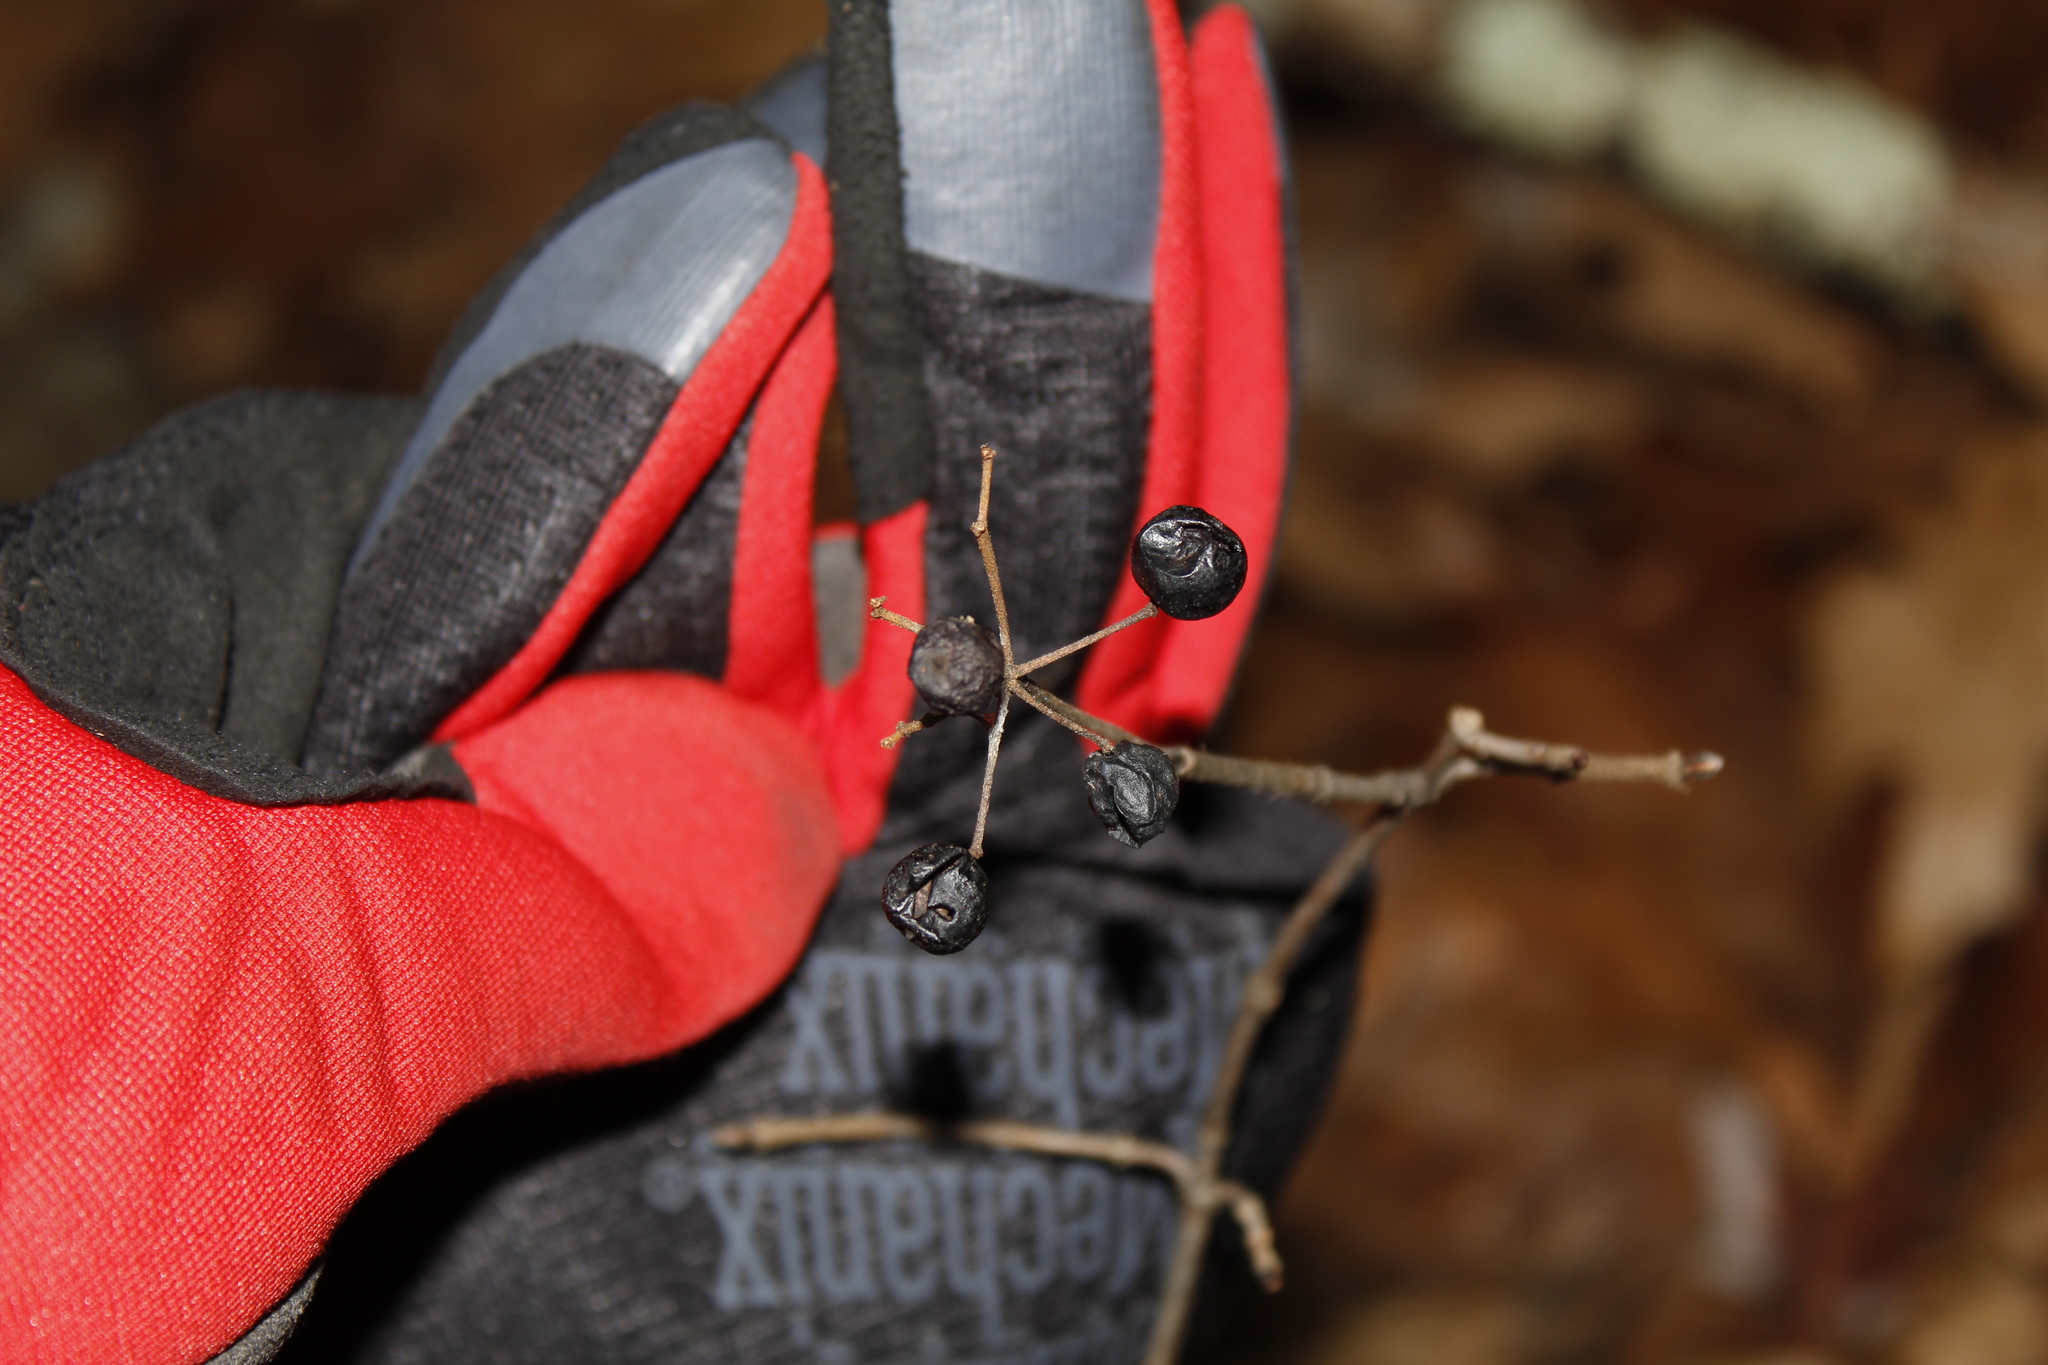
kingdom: Plantae
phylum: Tracheophyta
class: Magnoliopsida
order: Dipsacales
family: Viburnaceae
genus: Viburnum
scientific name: Viburnum acerifolium
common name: Dockmackie
